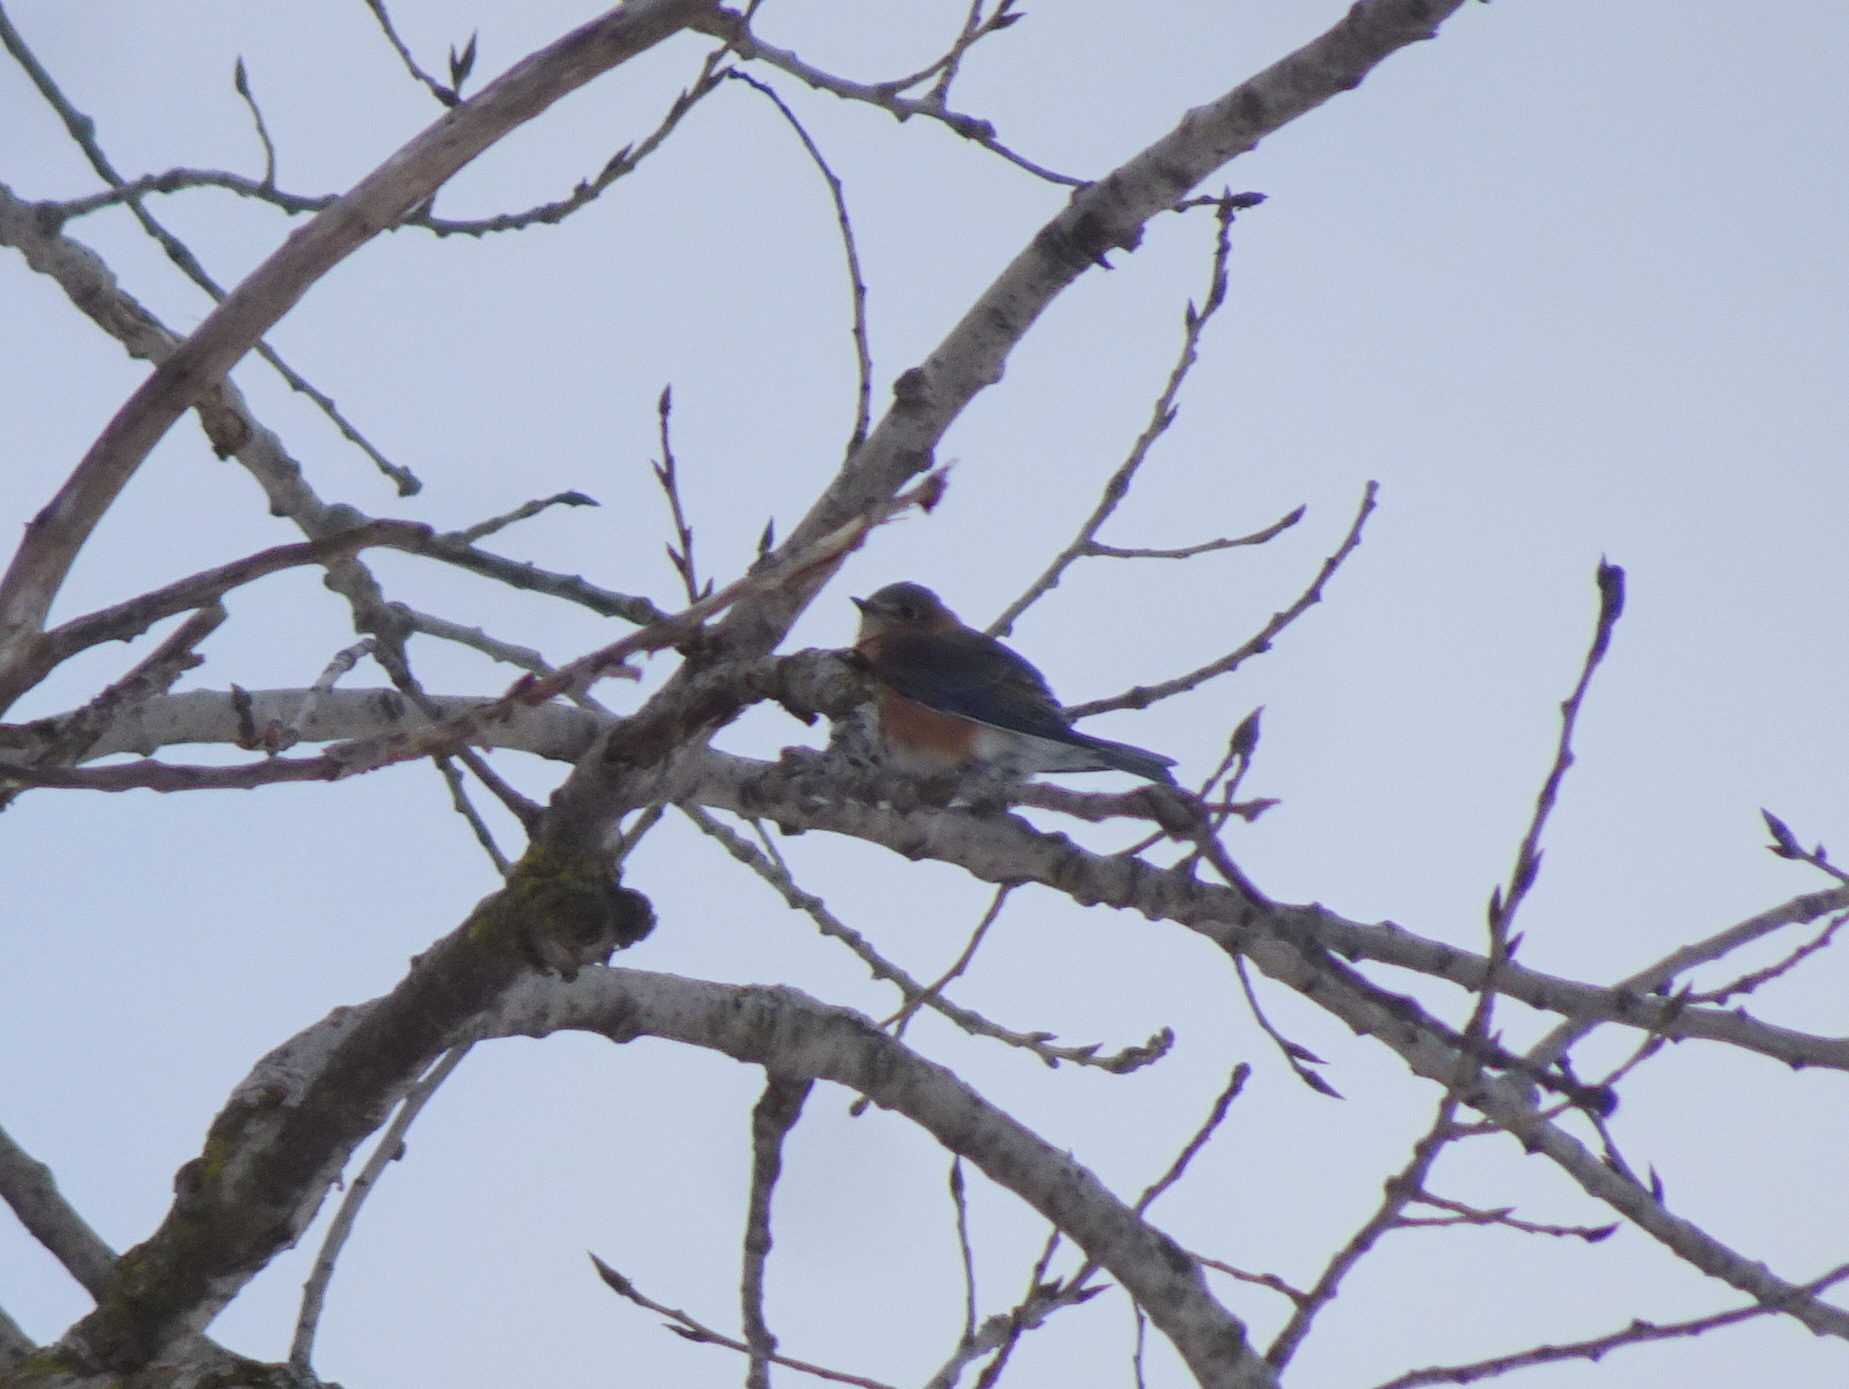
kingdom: Animalia
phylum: Chordata
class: Aves
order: Passeriformes
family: Turdidae
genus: Sialia
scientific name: Sialia sialis
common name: Eastern bluebird
